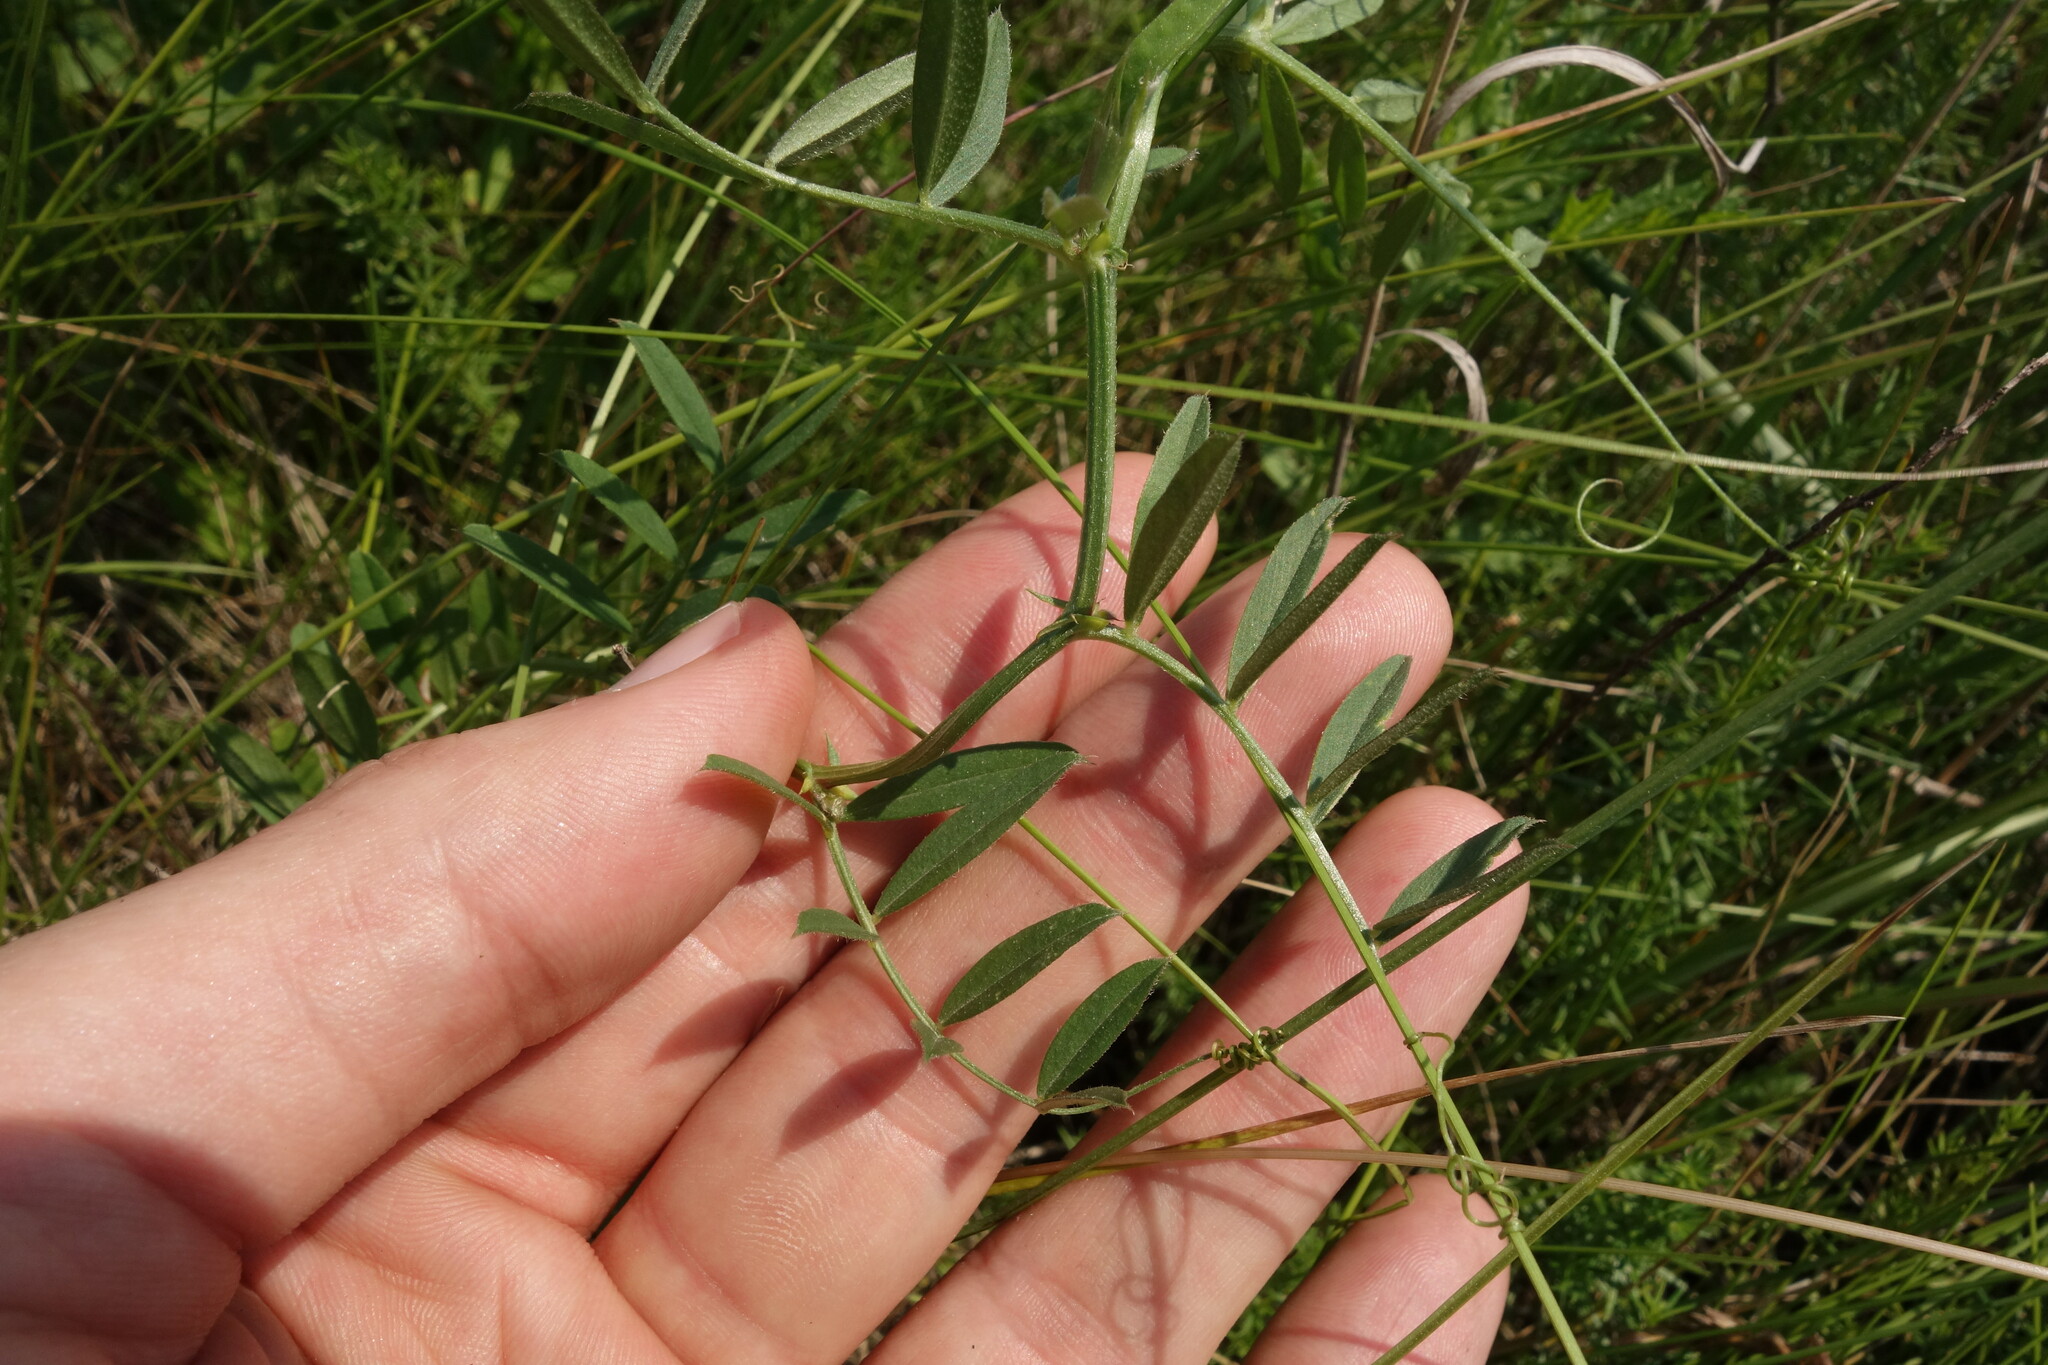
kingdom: Plantae
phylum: Tracheophyta
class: Magnoliopsida
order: Fabales
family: Fabaceae
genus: Vicia
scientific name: Vicia sativa
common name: Garden vetch
